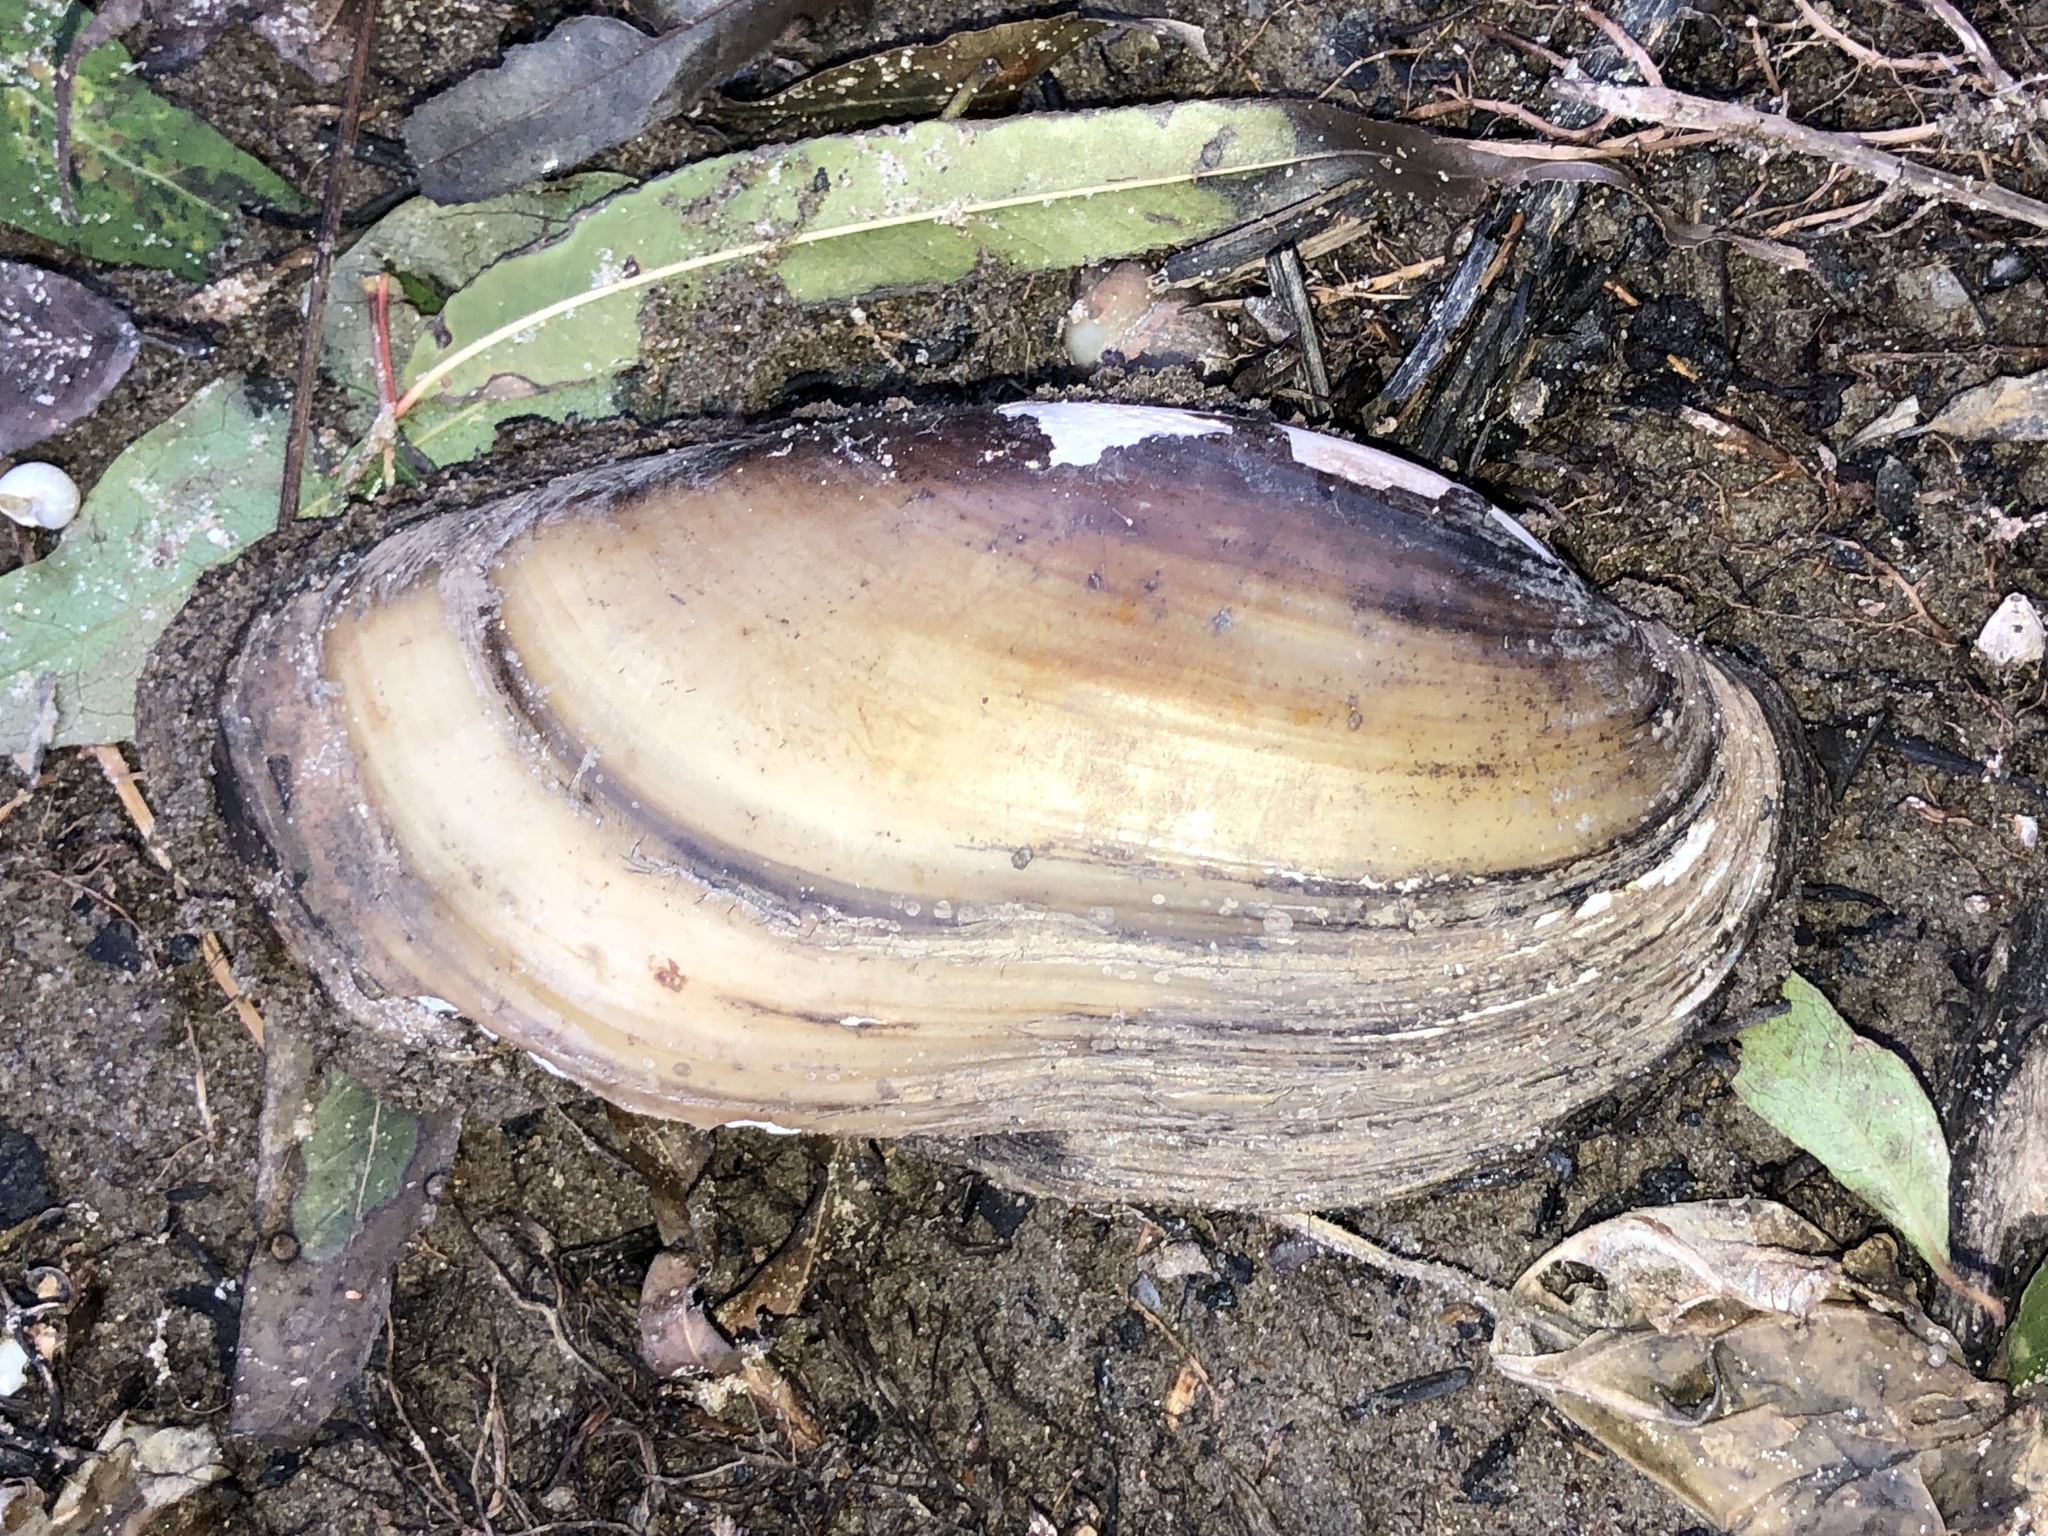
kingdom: Animalia
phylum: Mollusca
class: Bivalvia
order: Unionida
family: Unionidae
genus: Lampsilis
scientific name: Lampsilis teres
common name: Yellow sandshell
